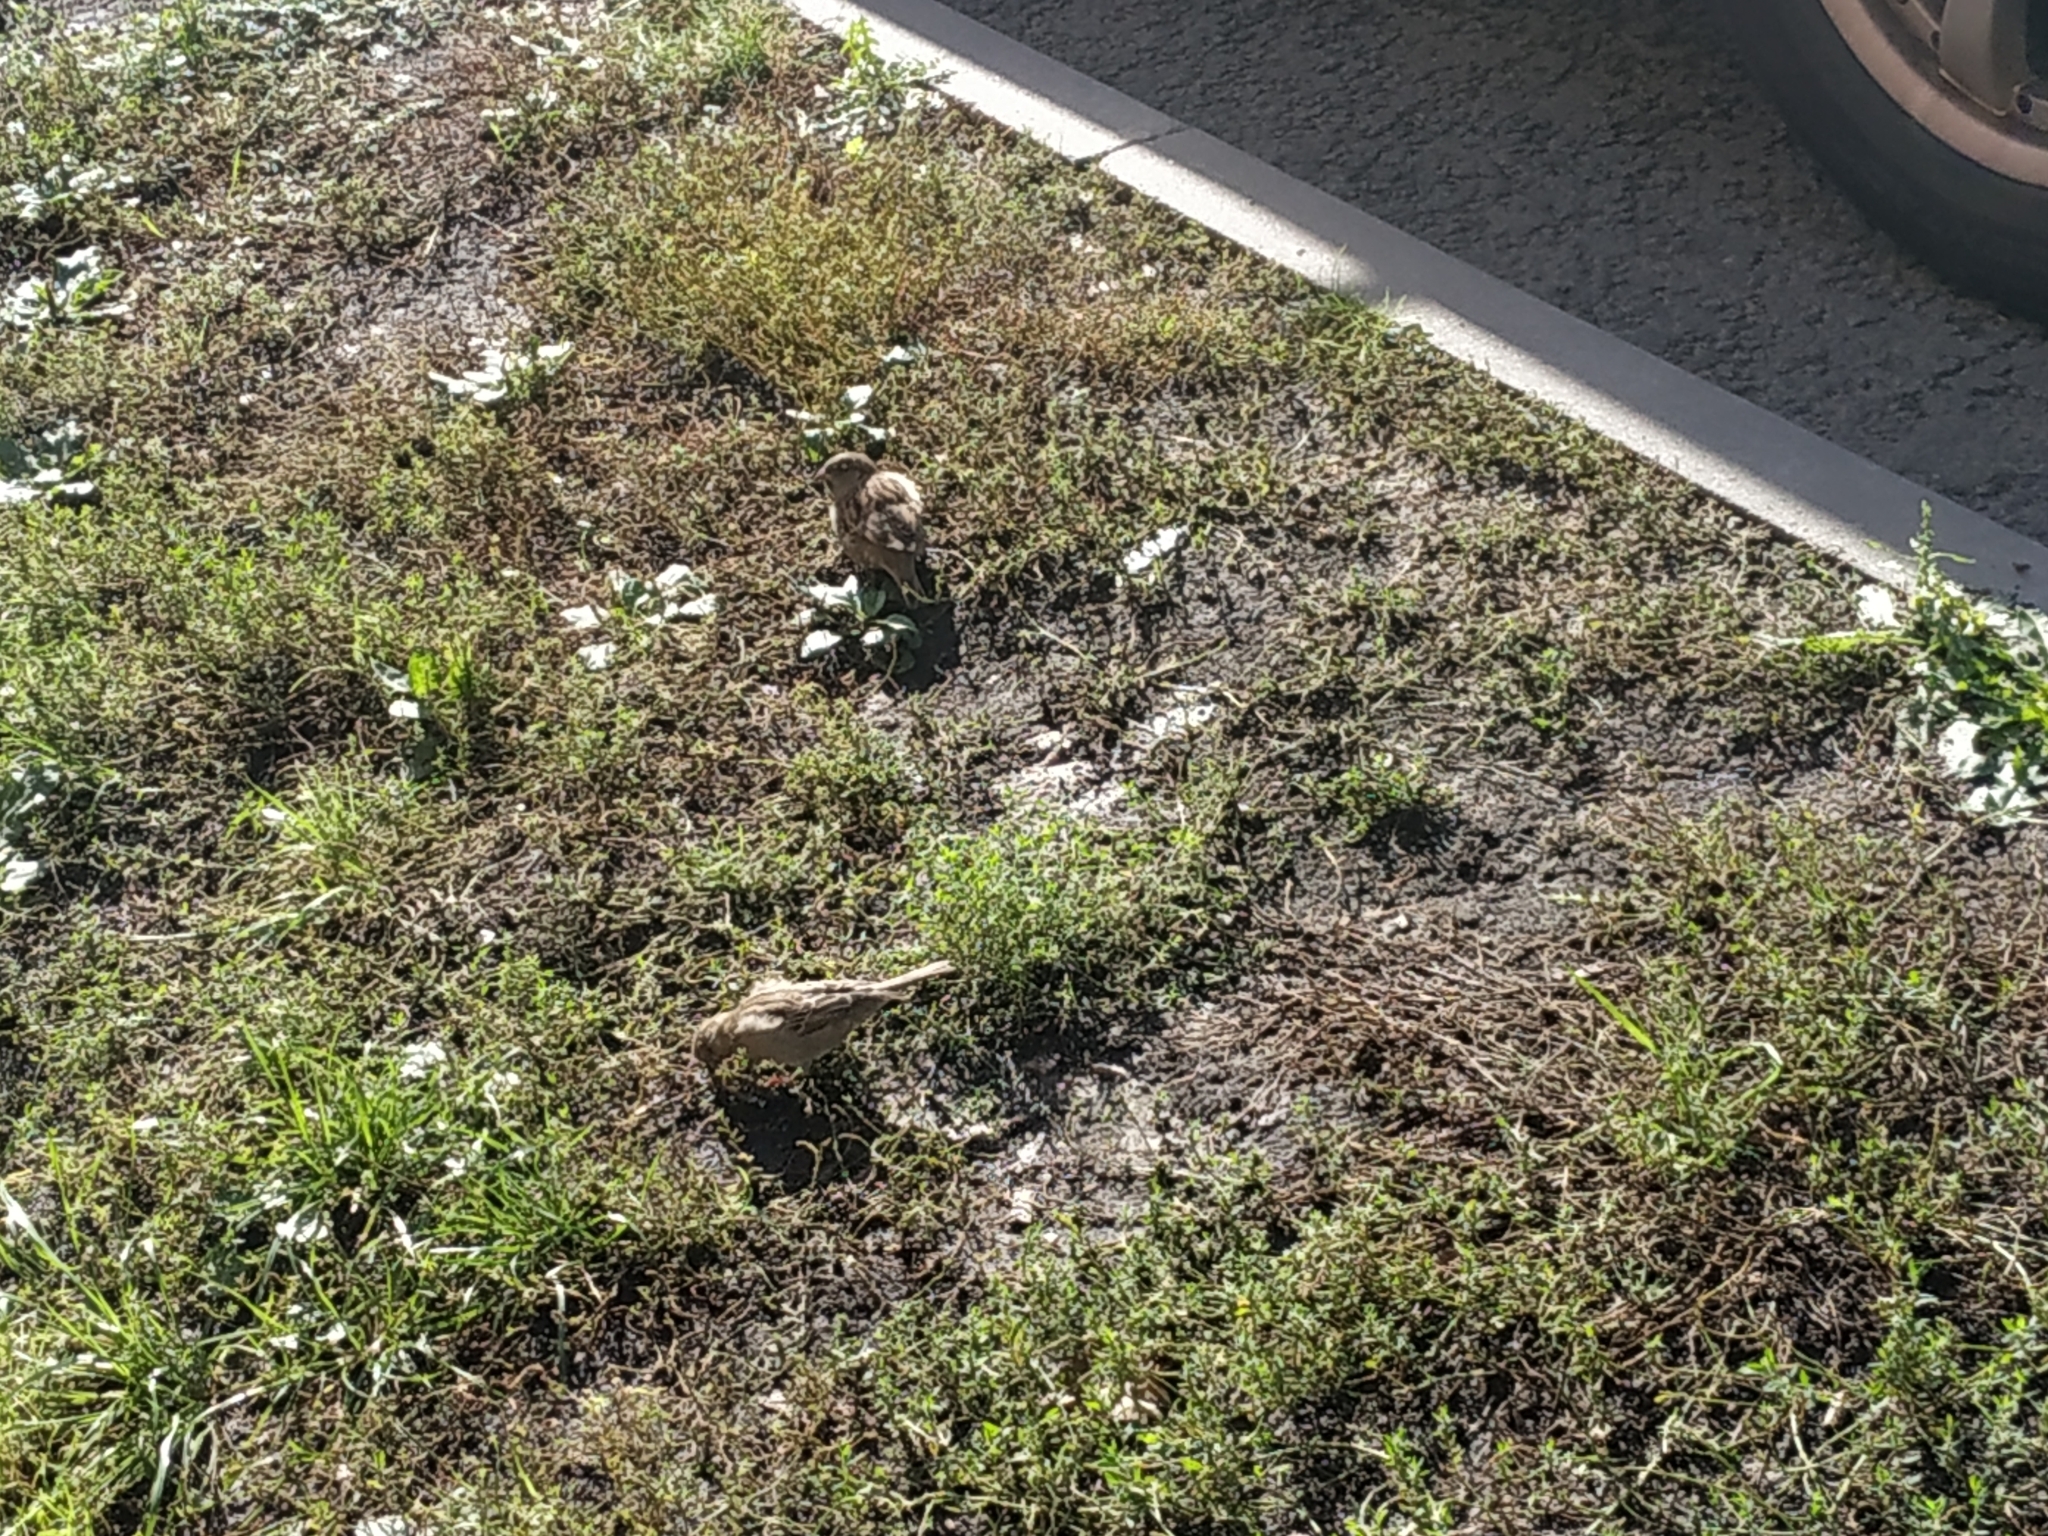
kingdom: Animalia
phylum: Chordata
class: Aves
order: Passeriformes
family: Passeridae
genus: Passer
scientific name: Passer domesticus
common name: House sparrow
